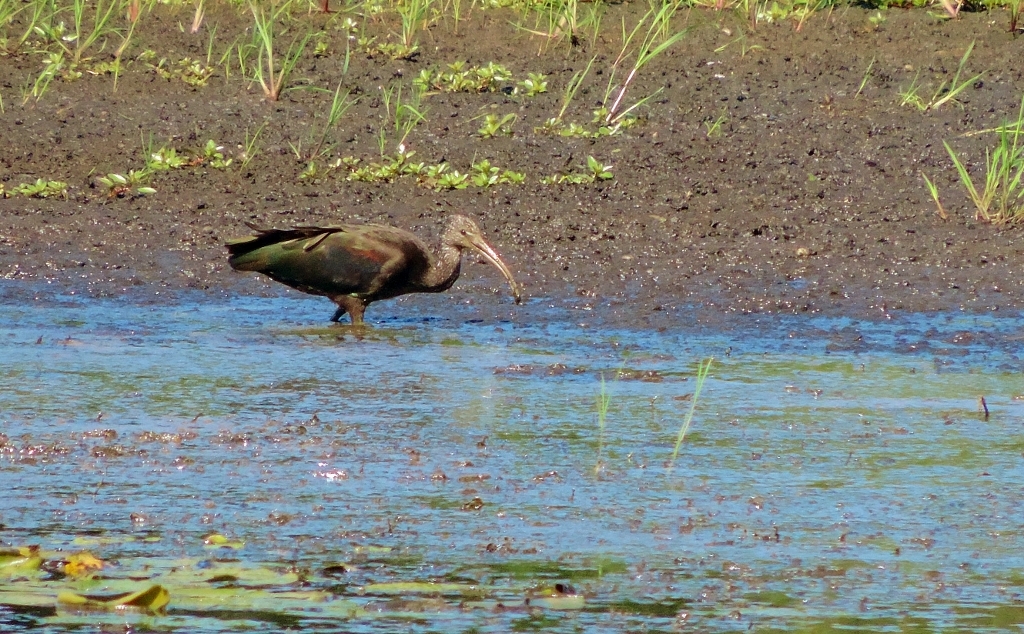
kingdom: Animalia
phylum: Chordata
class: Aves
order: Pelecaniformes
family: Threskiornithidae
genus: Plegadis
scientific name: Plegadis falcinellus
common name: Glossy ibis
